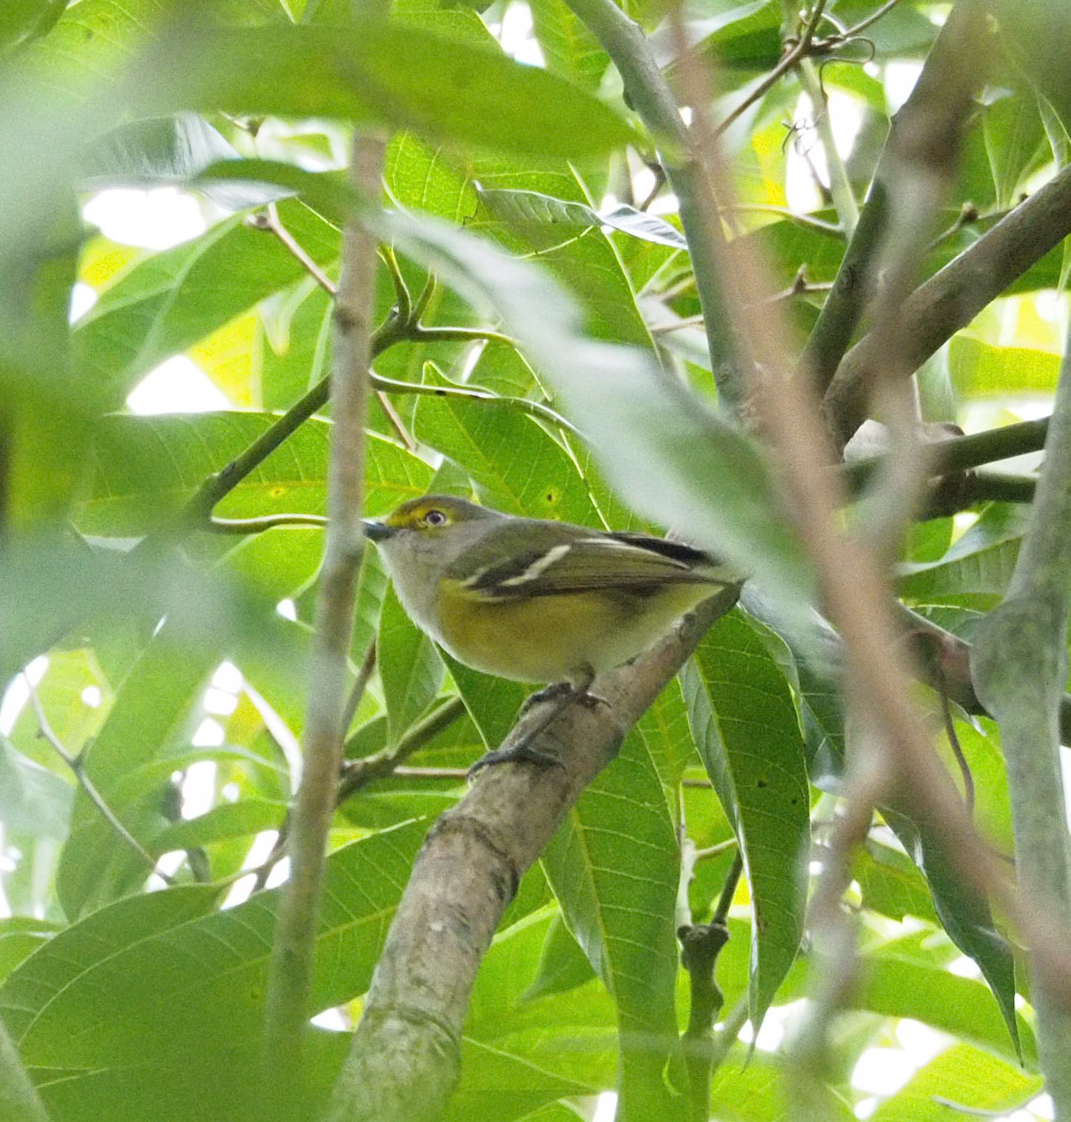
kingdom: Animalia
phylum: Chordata
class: Aves
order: Passeriformes
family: Vireonidae
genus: Vireo
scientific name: Vireo griseus
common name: White-eyed vireo
